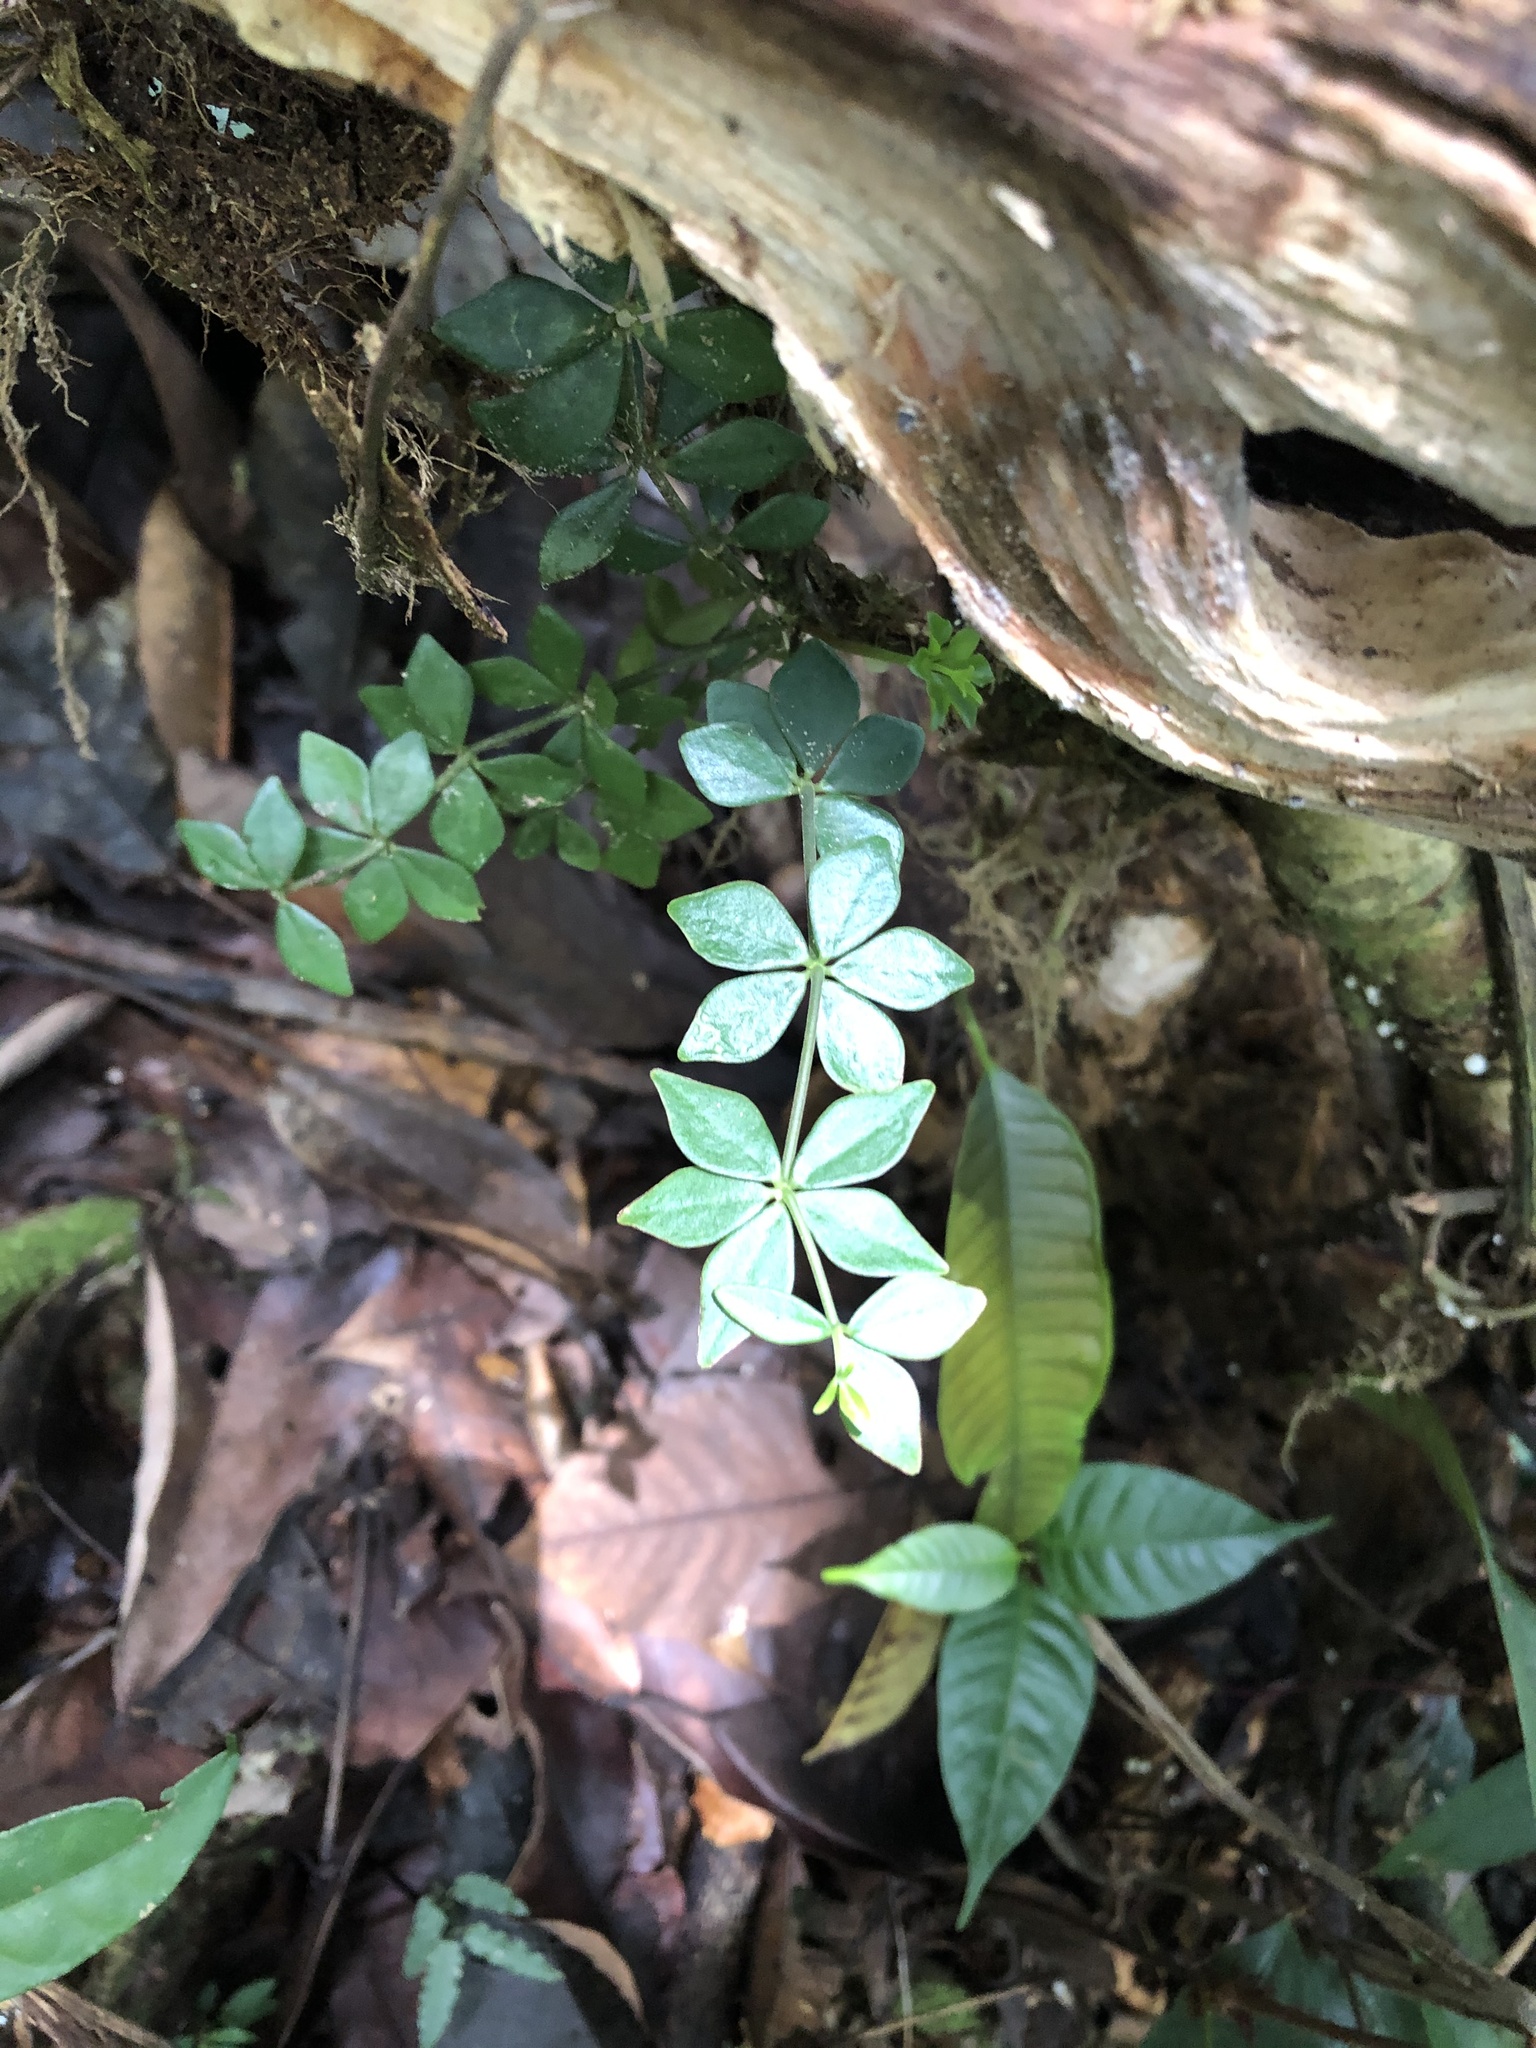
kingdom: Plantae
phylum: Tracheophyta
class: Magnoliopsida
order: Piperales
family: Piperaceae
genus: Peperomia
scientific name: Peperomia quaesita
